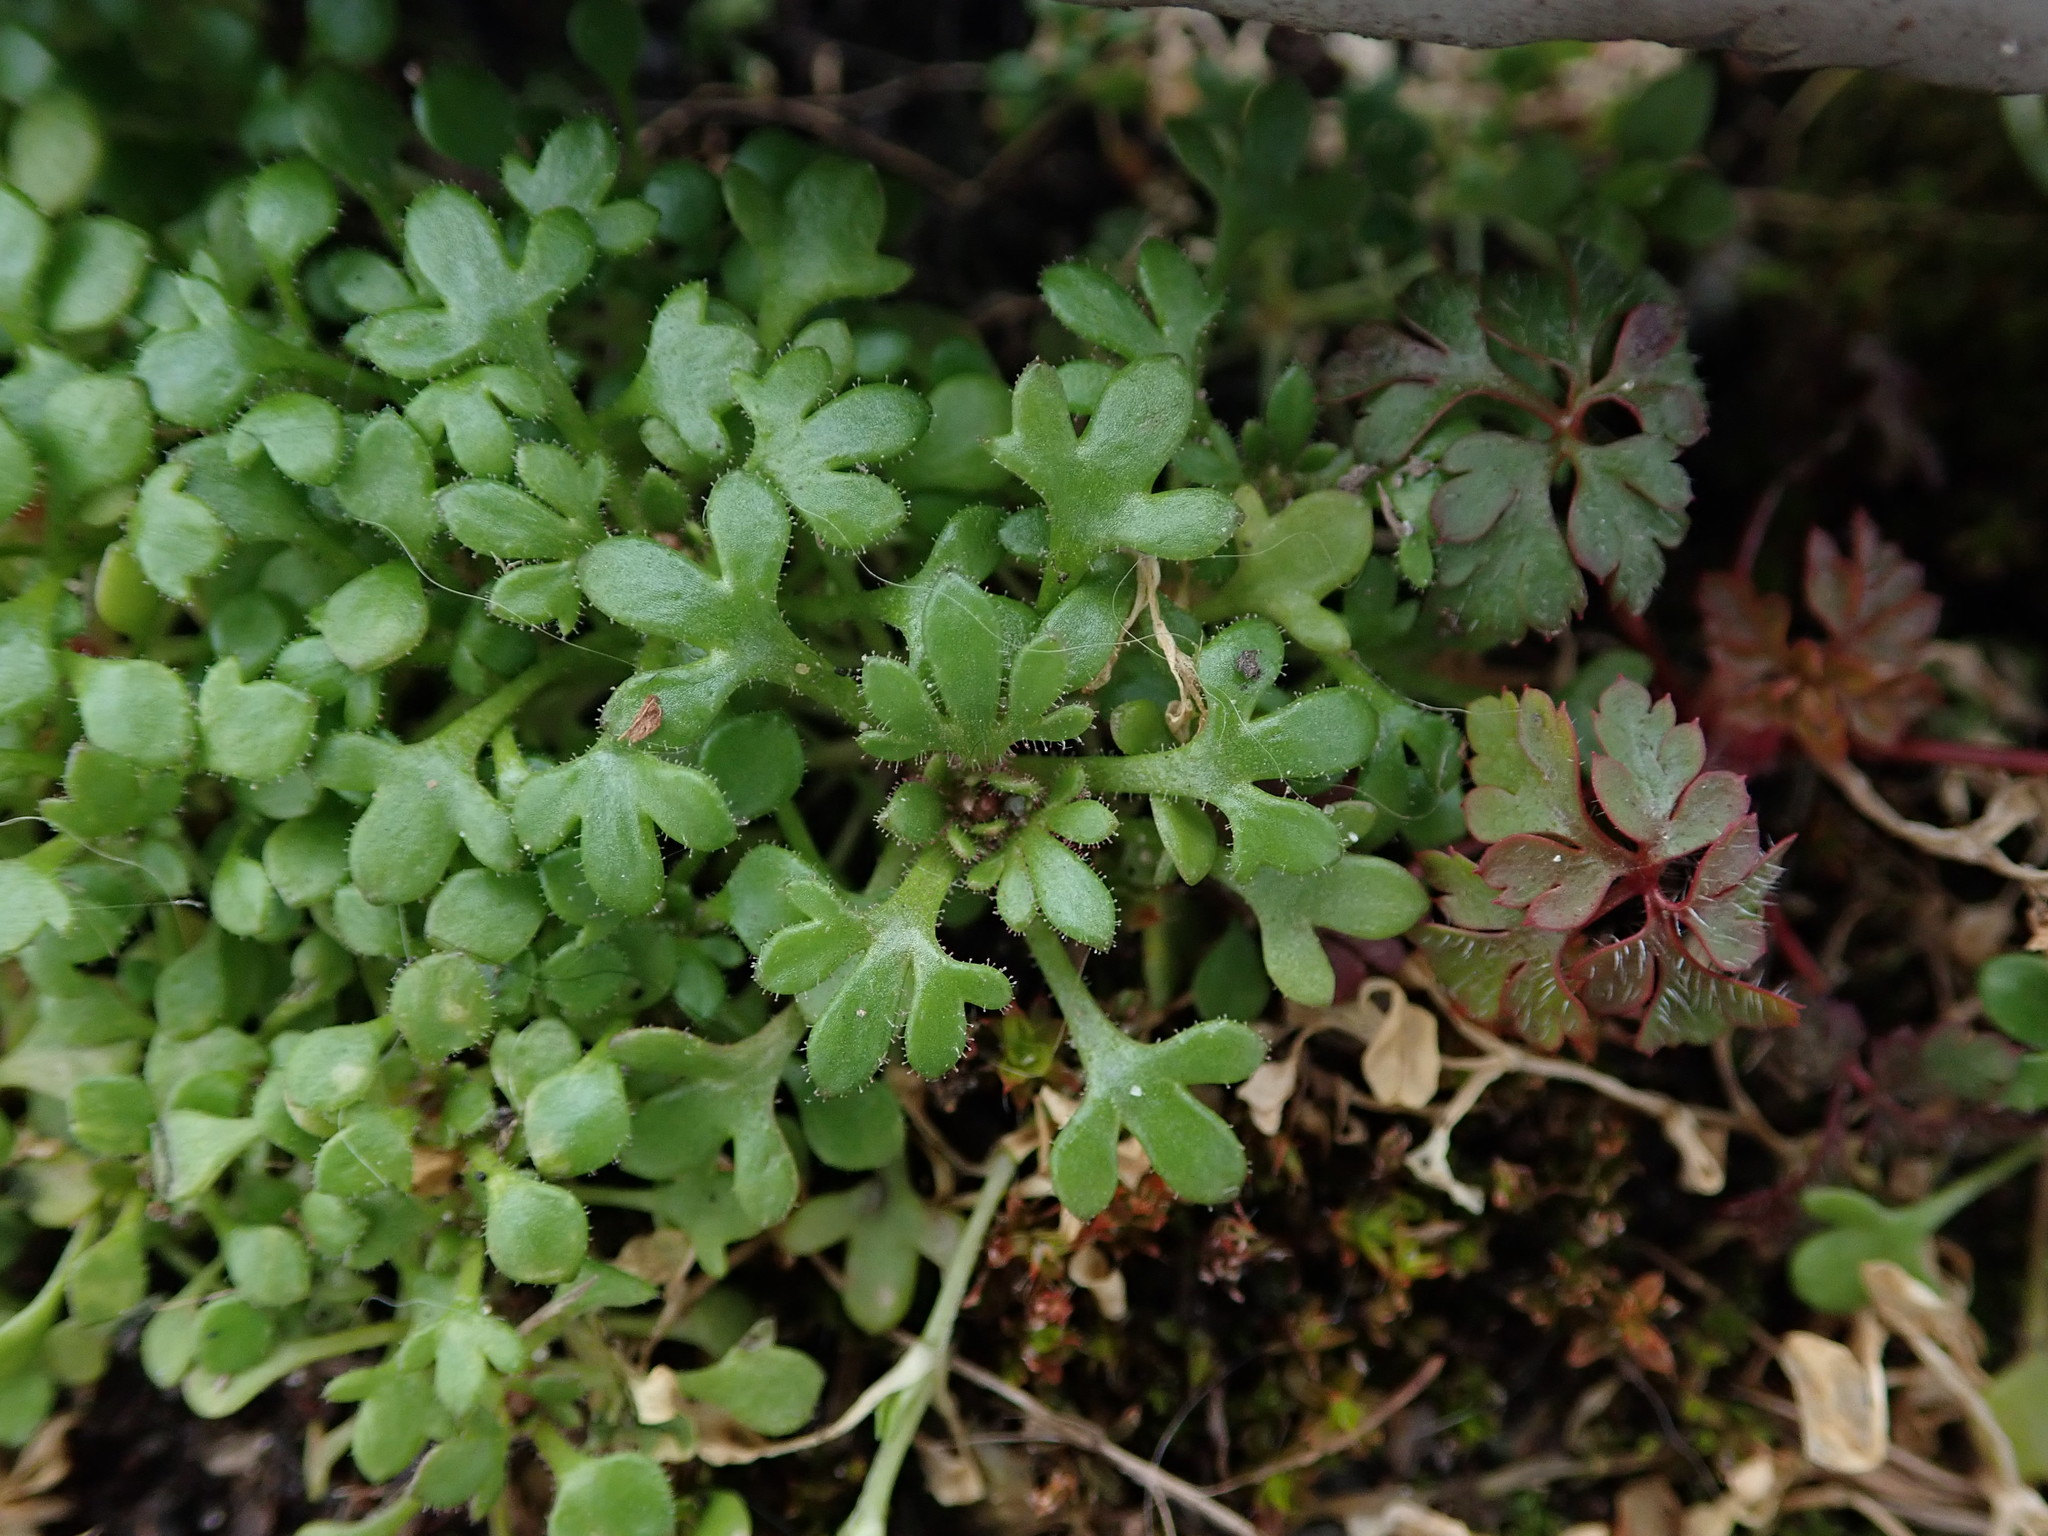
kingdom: Plantae
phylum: Tracheophyta
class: Magnoliopsida
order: Saxifragales
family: Saxifragaceae
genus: Saxifraga
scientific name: Saxifraga tridactylites
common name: Rue-leaved saxifrage
